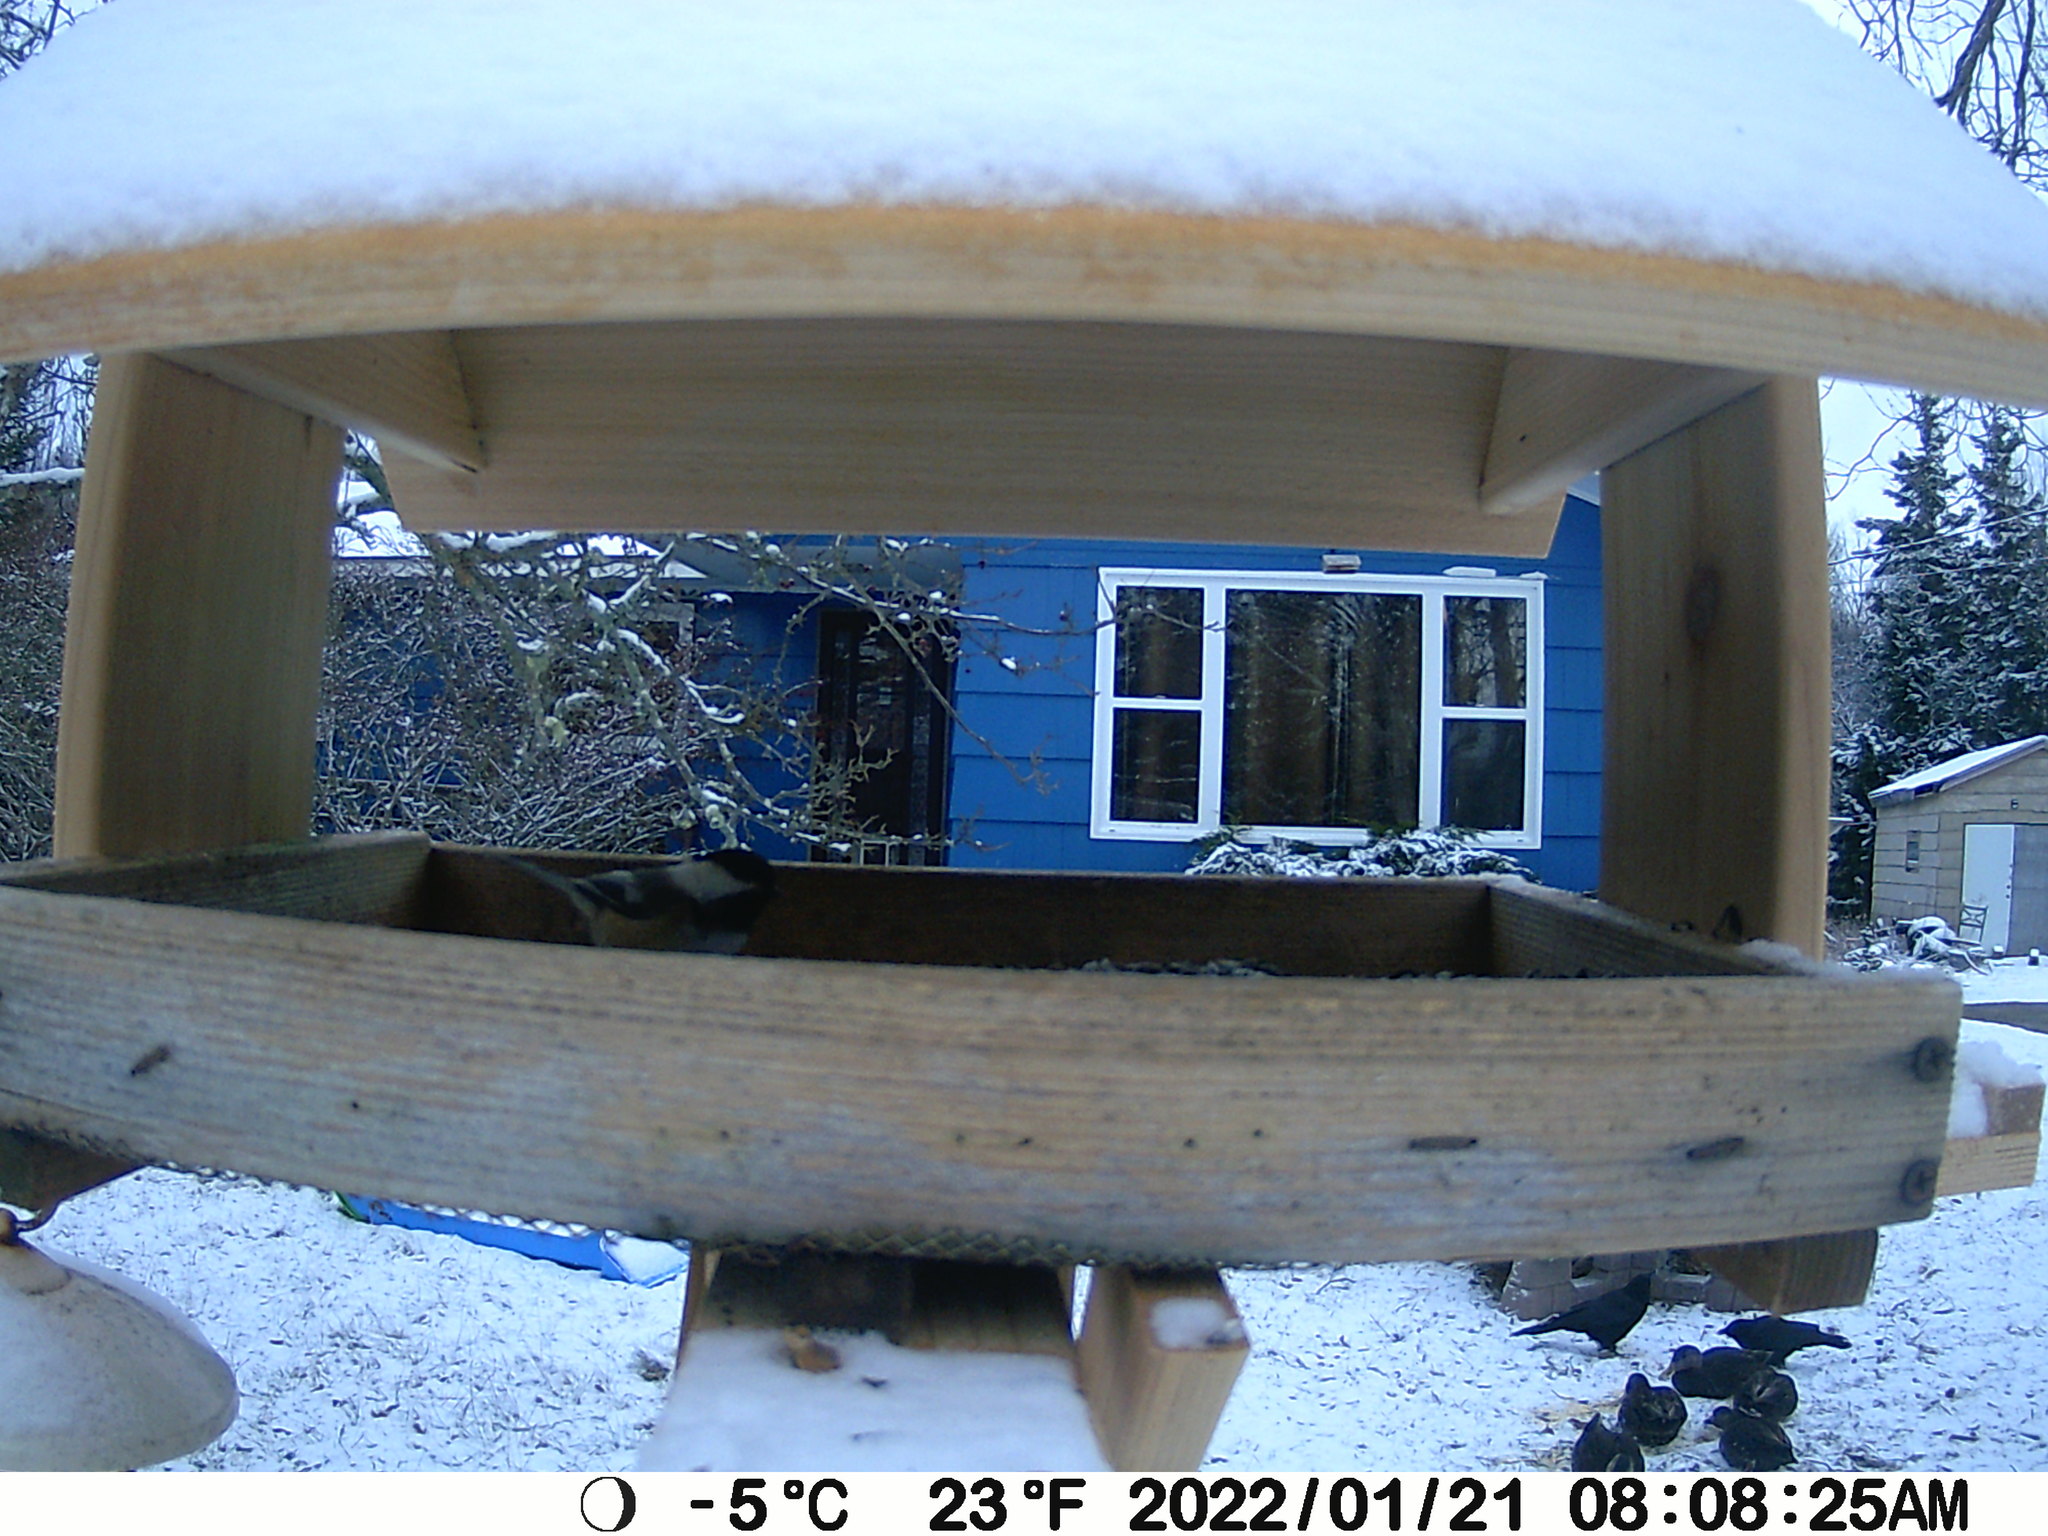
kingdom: Animalia
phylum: Chordata
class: Aves
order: Anseriformes
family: Anatidae
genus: Anas
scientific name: Anas rubripes
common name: American black duck
